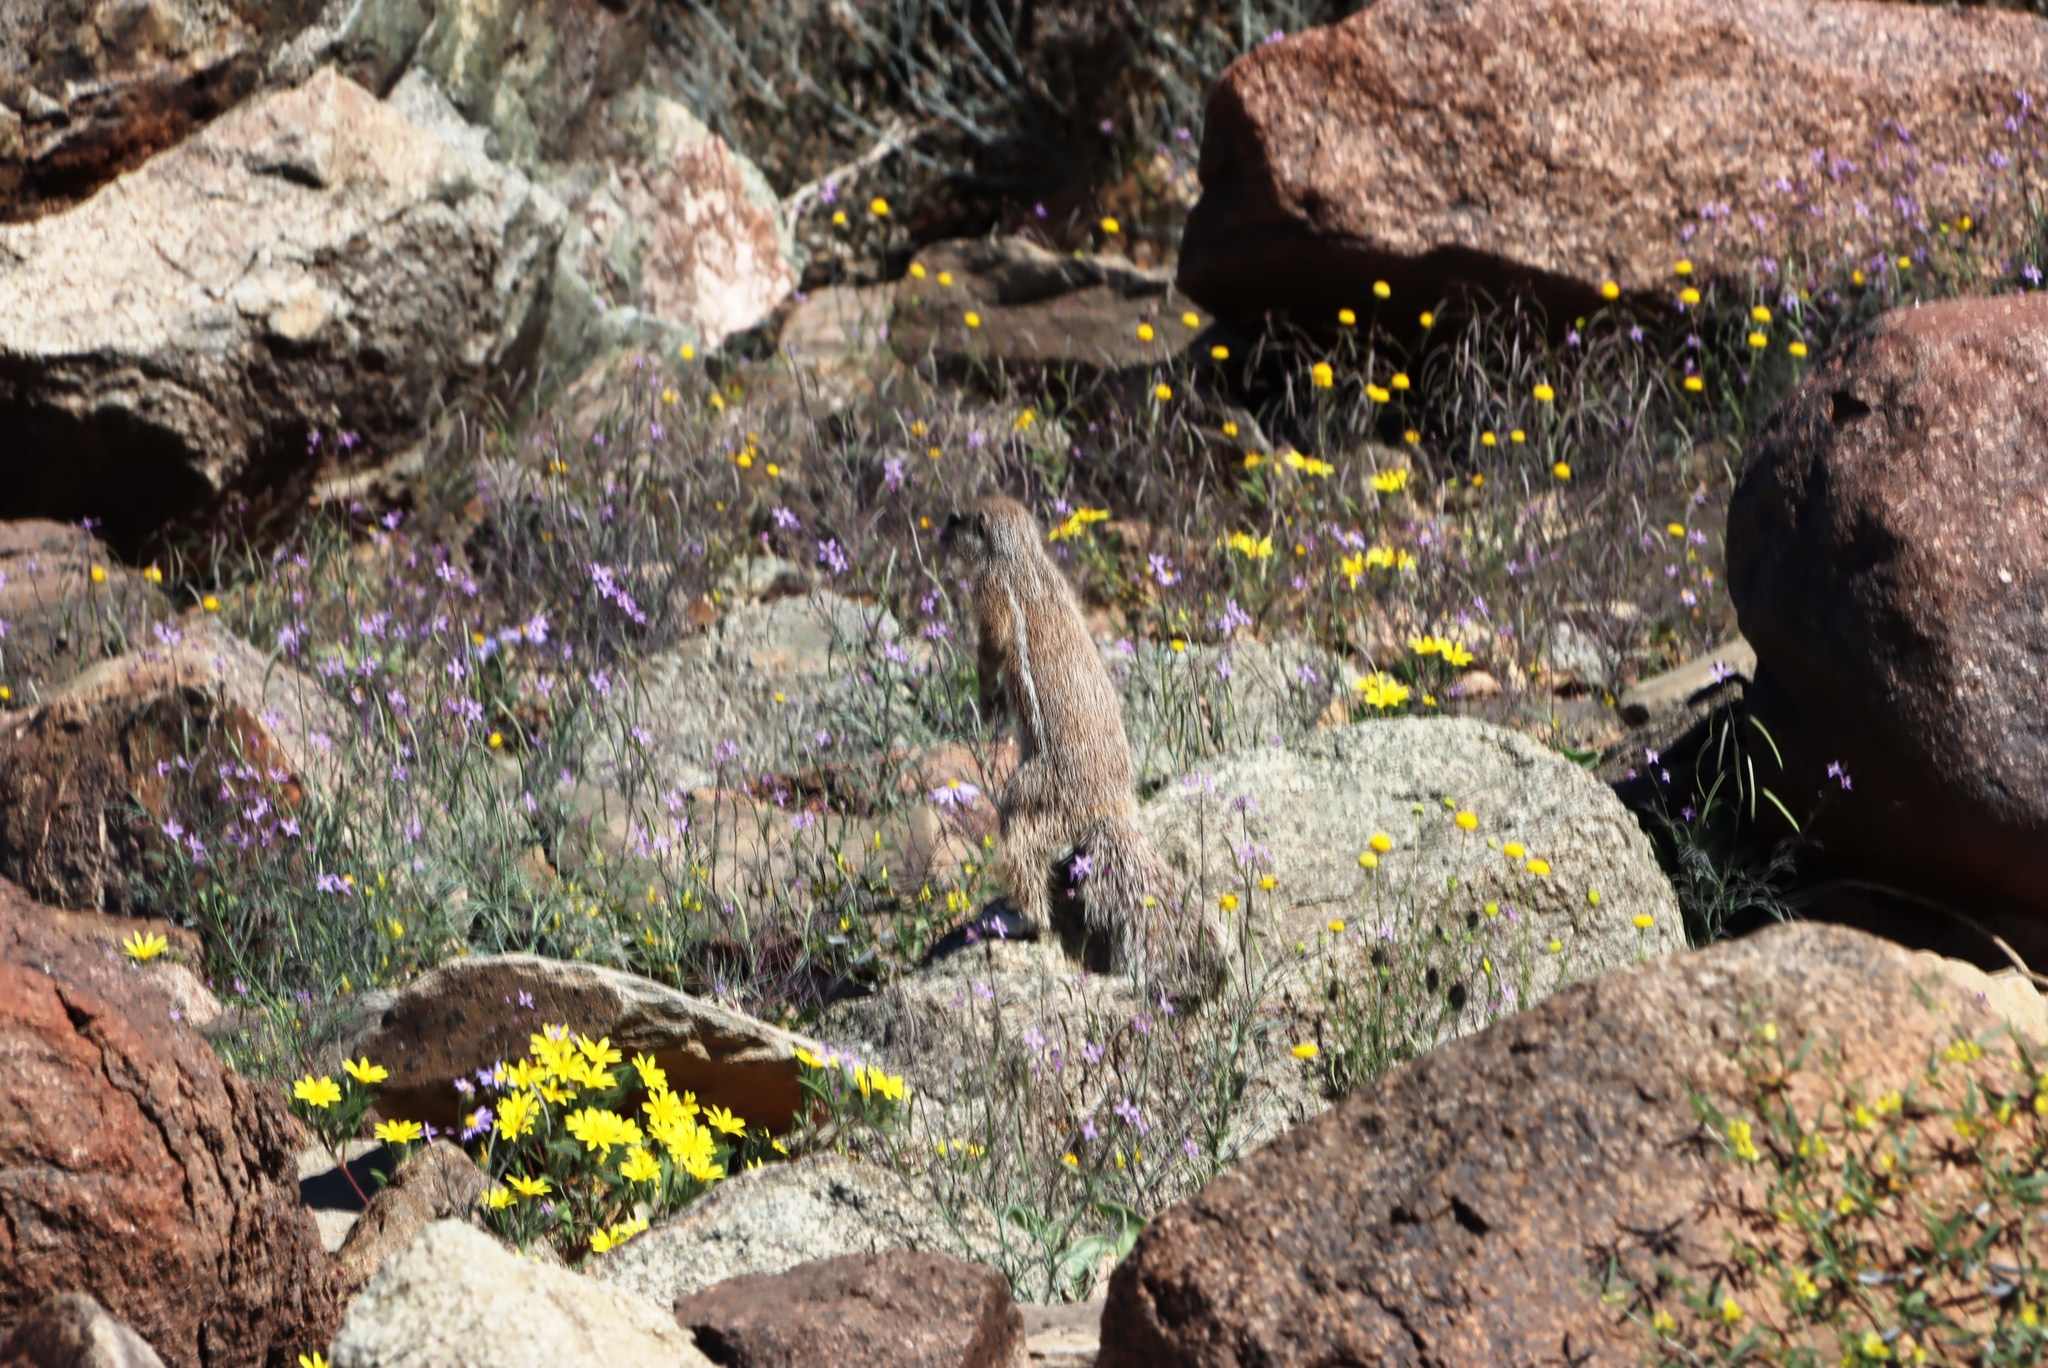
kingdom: Animalia
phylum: Chordata
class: Mammalia
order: Rodentia
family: Sciuridae
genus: Xerus
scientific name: Xerus inauris
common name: South african ground squirrel
